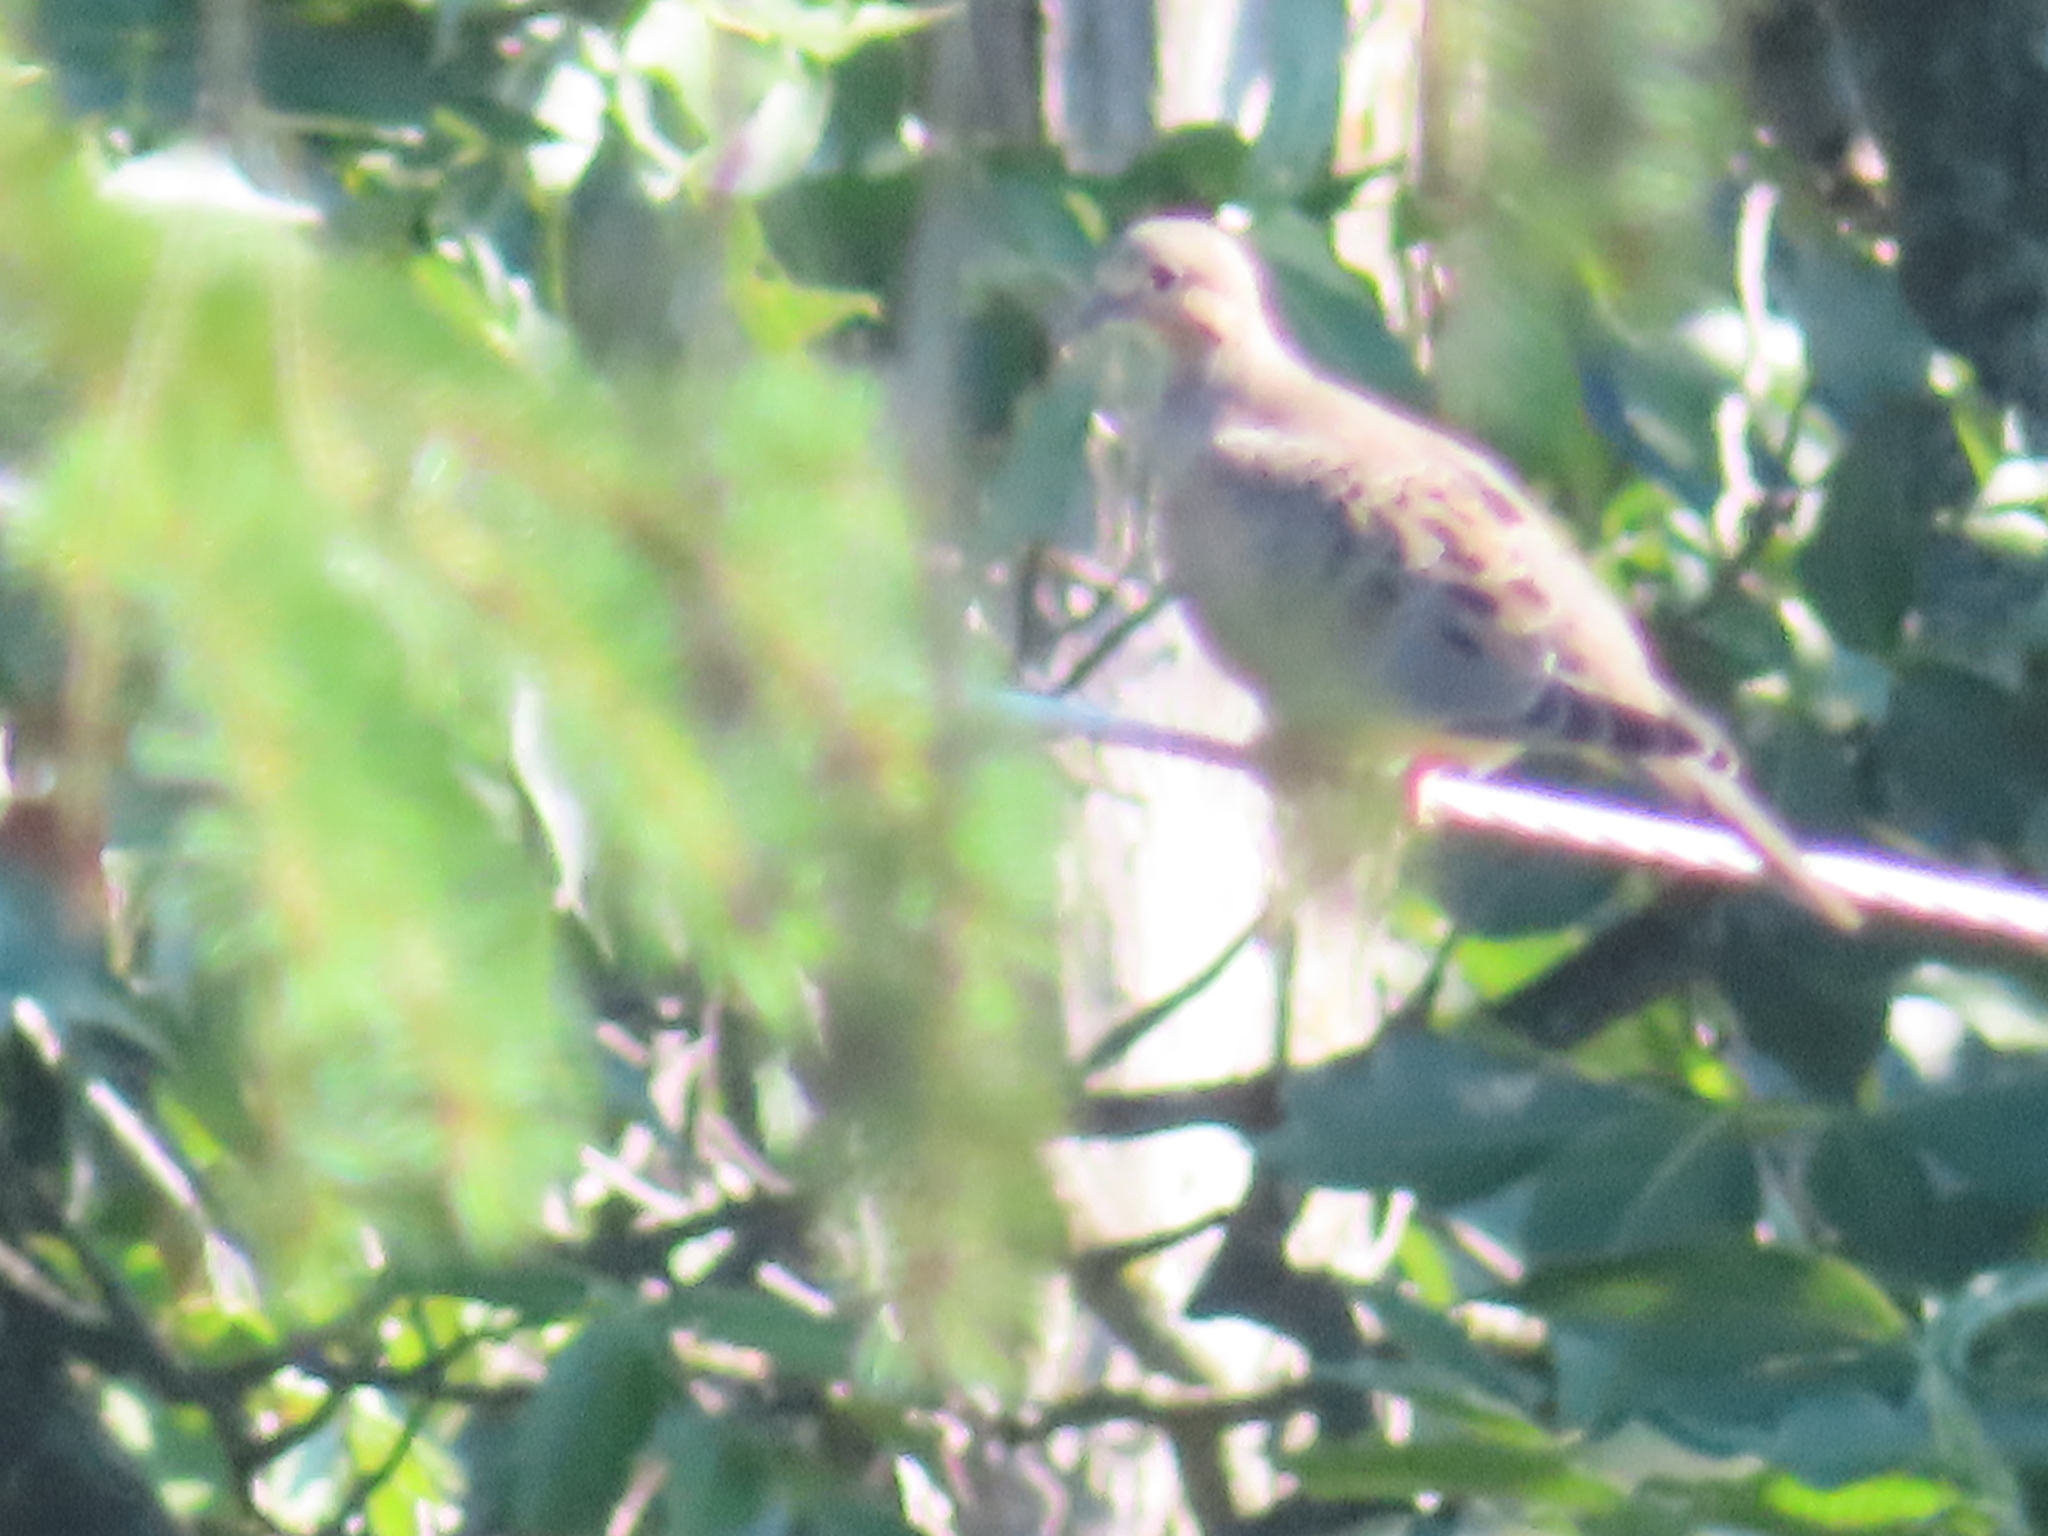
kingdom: Animalia
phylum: Chordata
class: Aves
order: Columbiformes
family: Columbidae
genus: Zenaida
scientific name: Zenaida macroura
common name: Mourning dove
